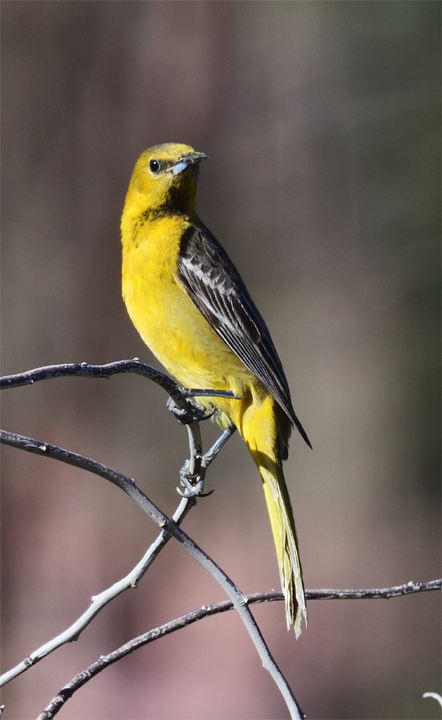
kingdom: Animalia
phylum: Chordata
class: Aves
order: Passeriformes
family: Icteridae
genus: Icterus
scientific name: Icterus cucullatus
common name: Hooded oriole
